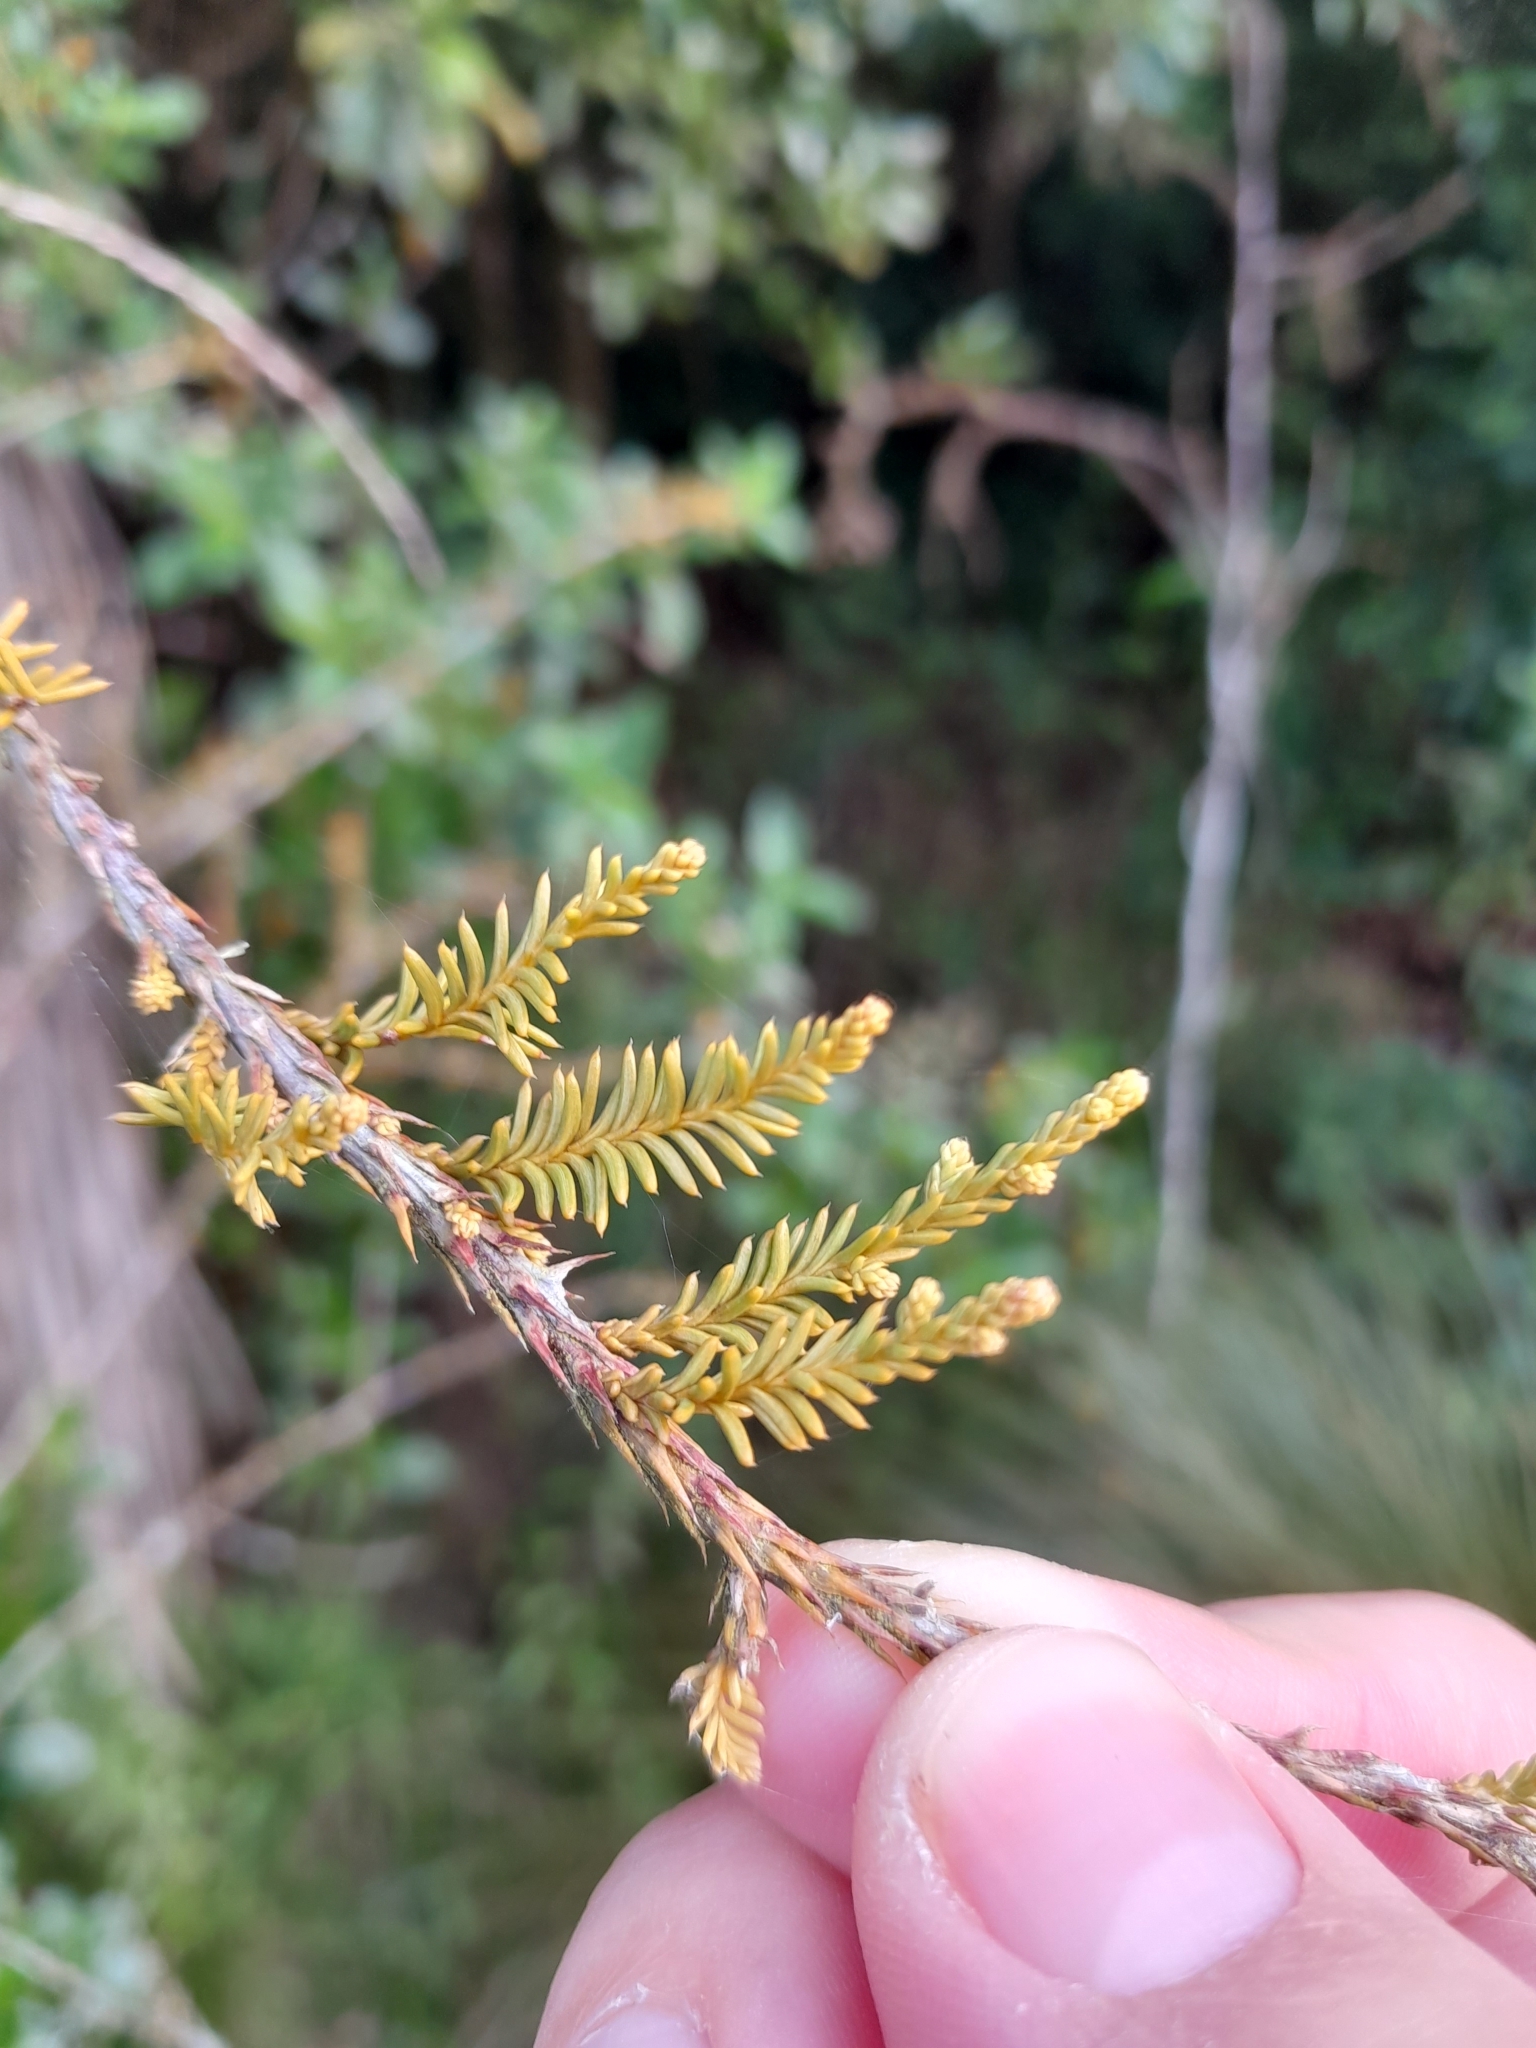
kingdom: Plantae
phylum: Tracheophyta
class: Pinopsida
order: Pinales
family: Podocarpaceae
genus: Dacrycarpus
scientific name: Dacrycarpus dacrydioides
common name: White pine
